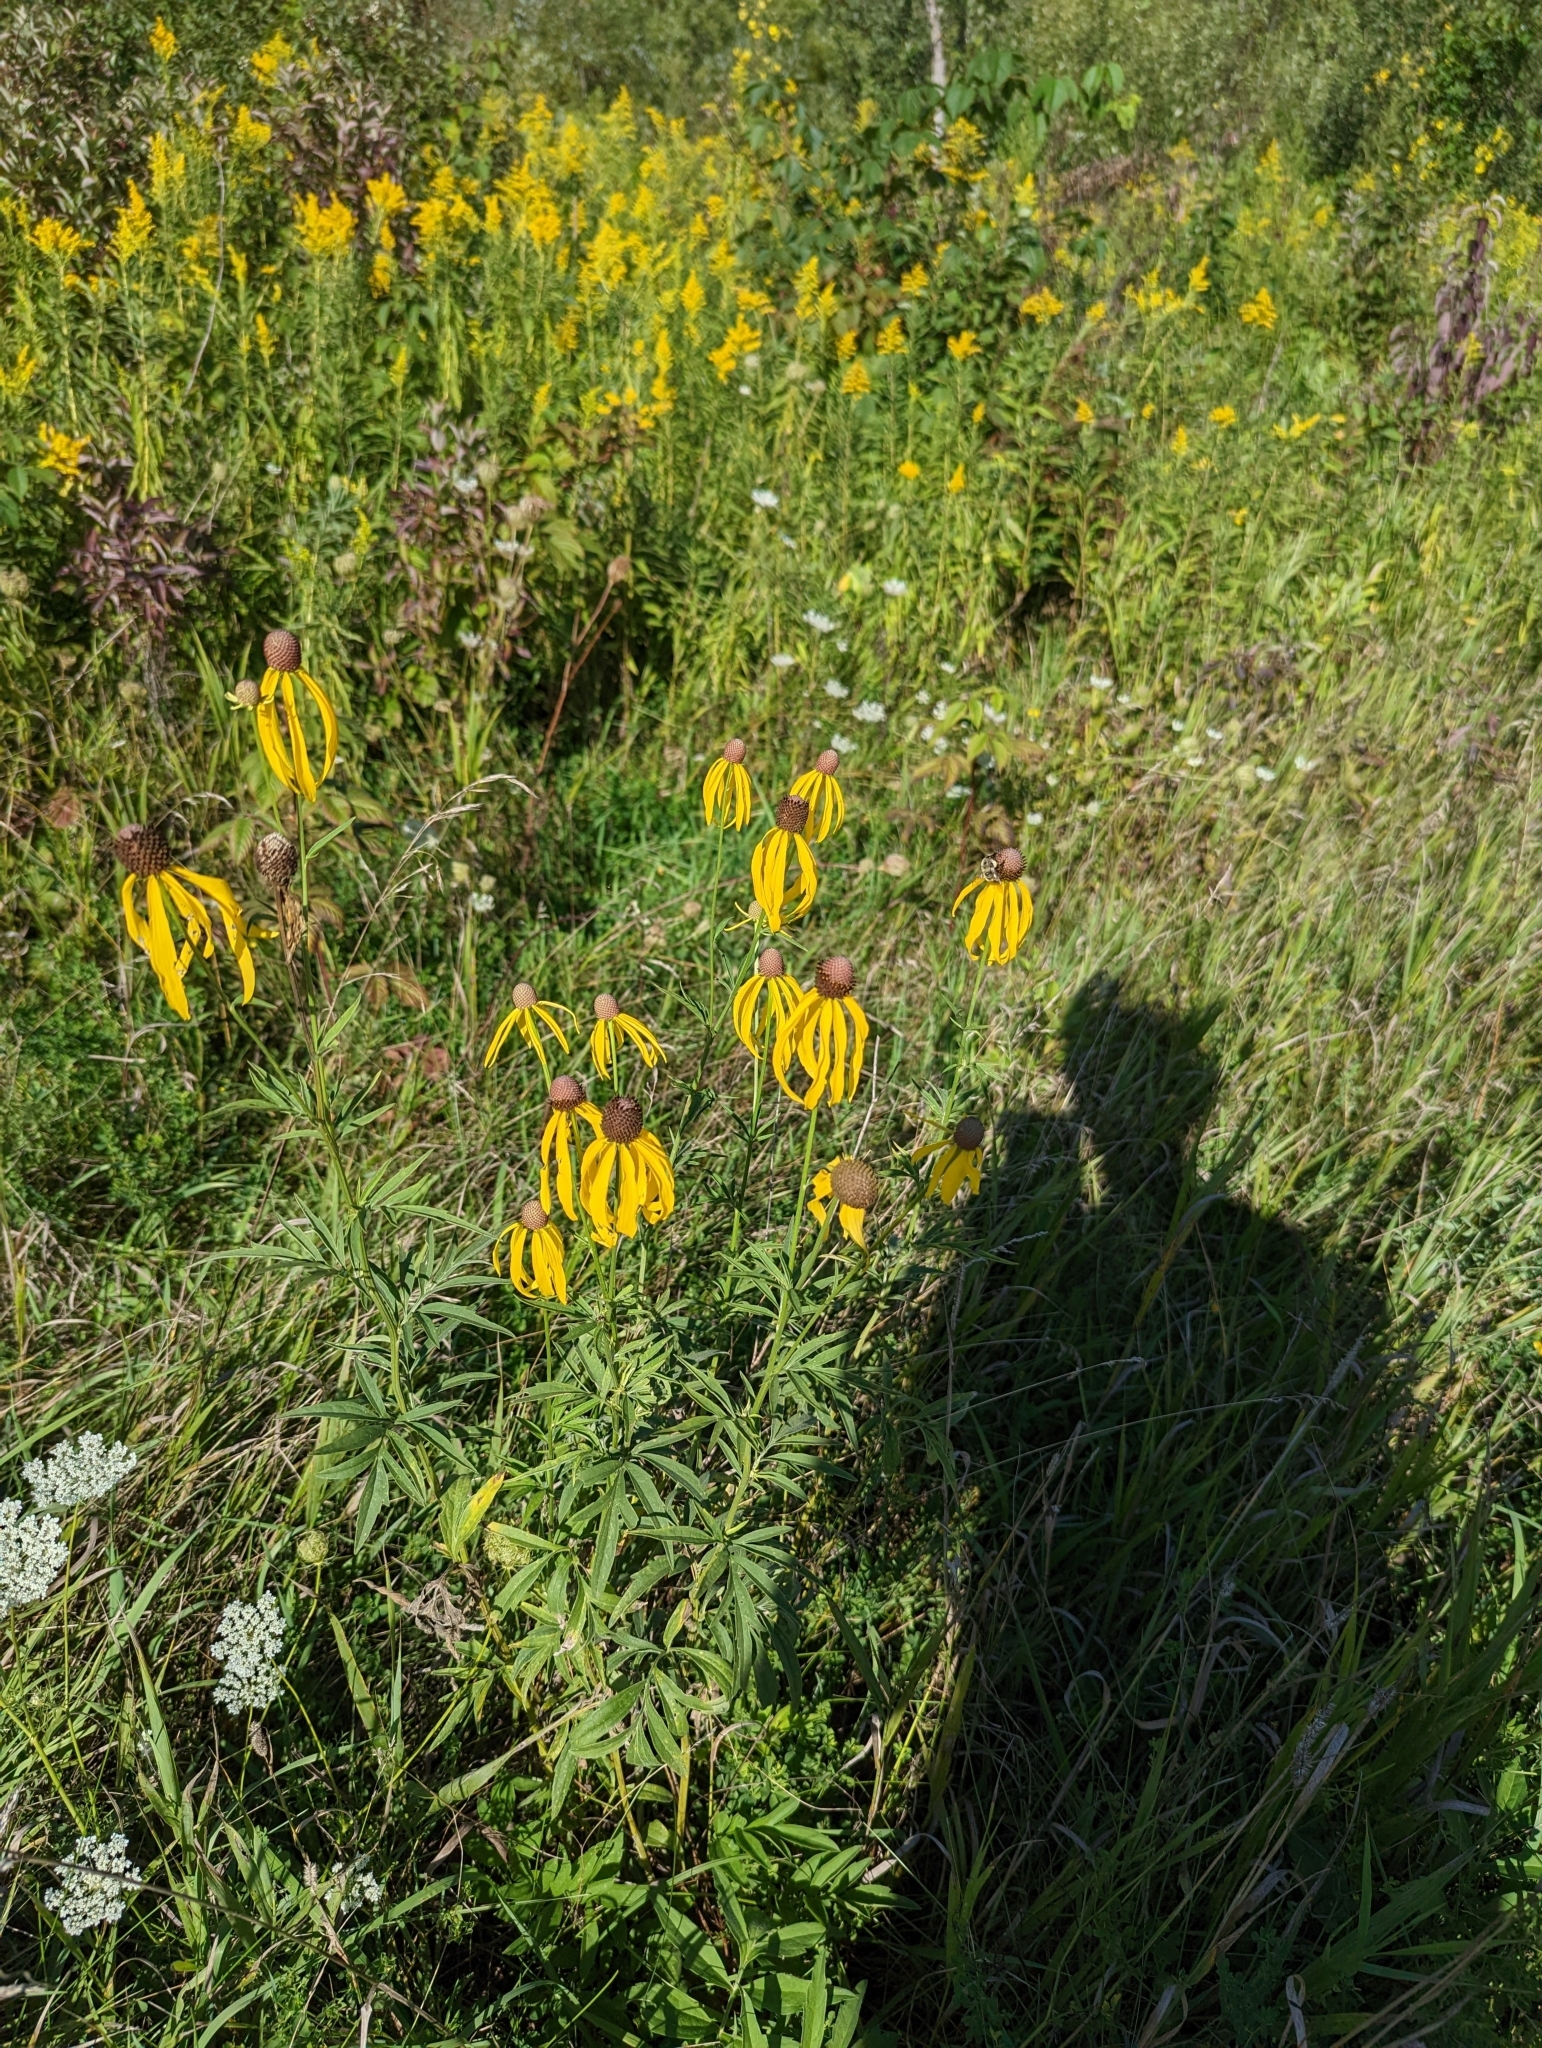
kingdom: Plantae
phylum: Tracheophyta
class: Magnoliopsida
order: Asterales
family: Asteraceae
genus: Ratibida
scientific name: Ratibida pinnata
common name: Drooping prairie-coneflower
